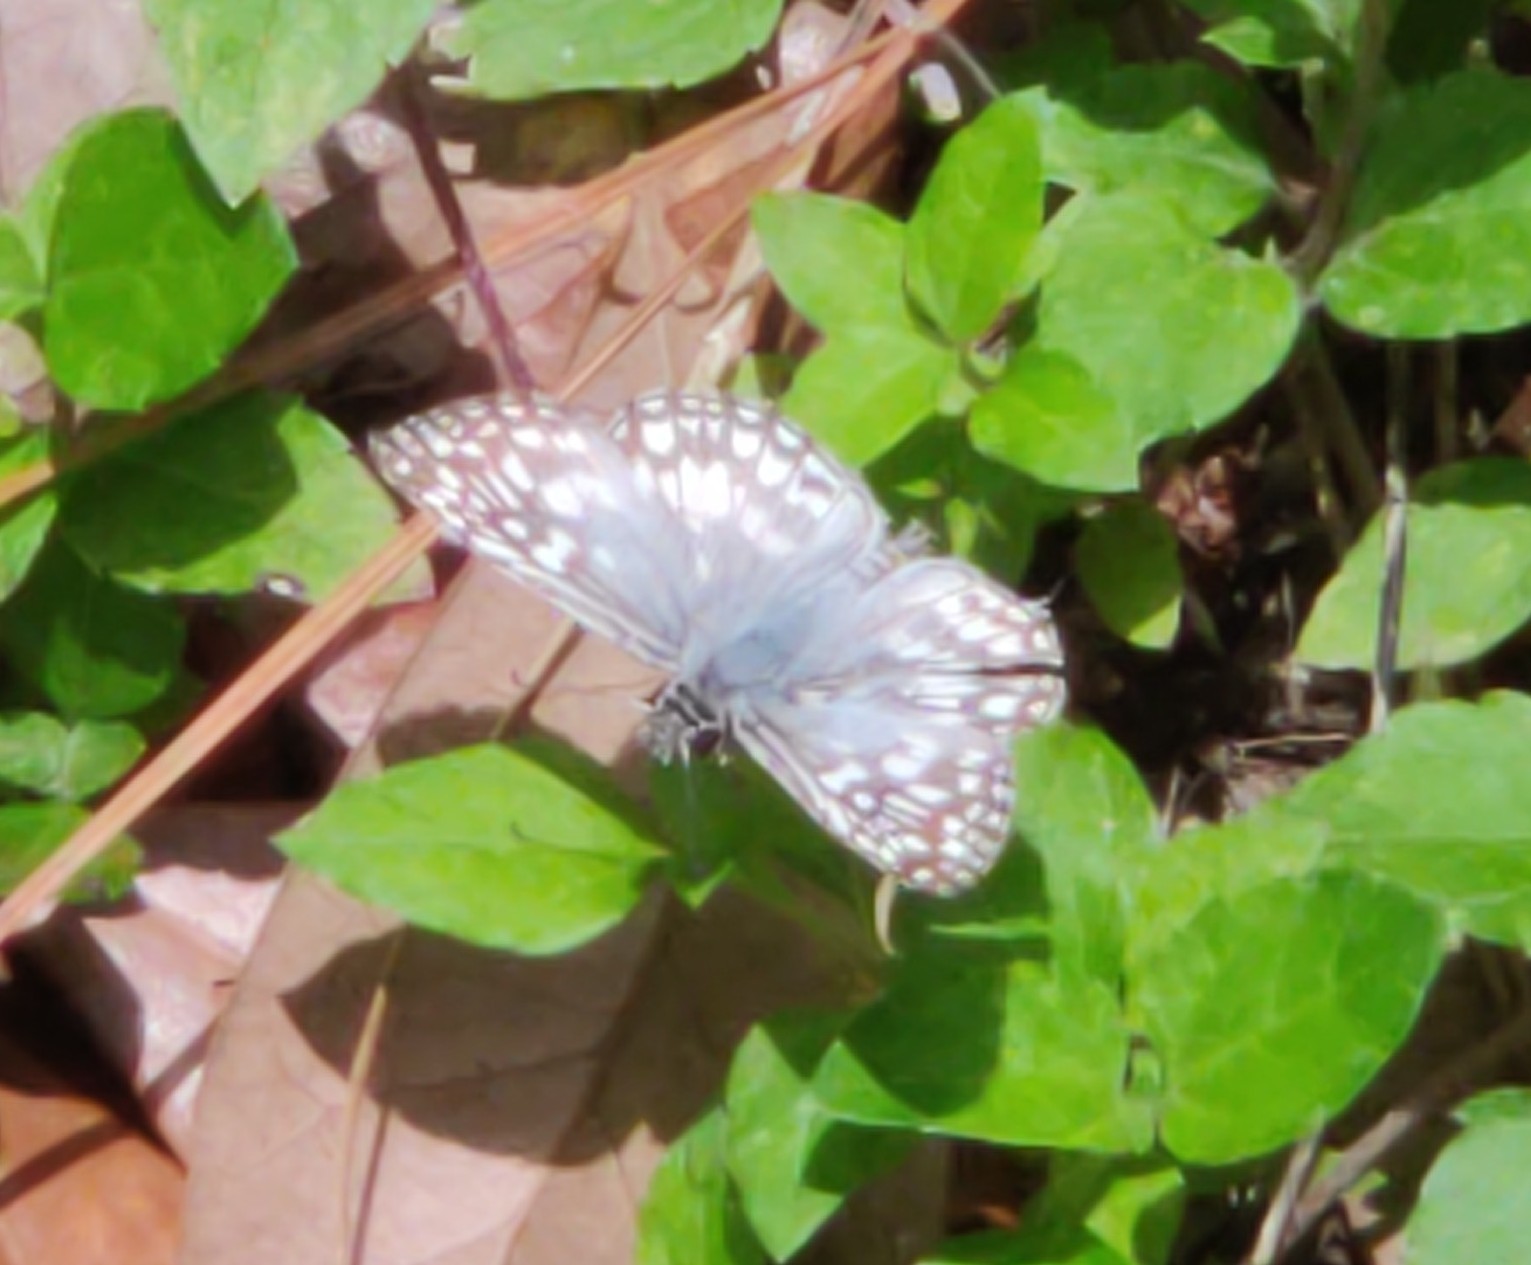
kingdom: Animalia
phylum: Arthropoda
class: Insecta
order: Lepidoptera
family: Hesperiidae
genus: Pyrgus
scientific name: Pyrgus oileus
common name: Tropical checkered-skipper
